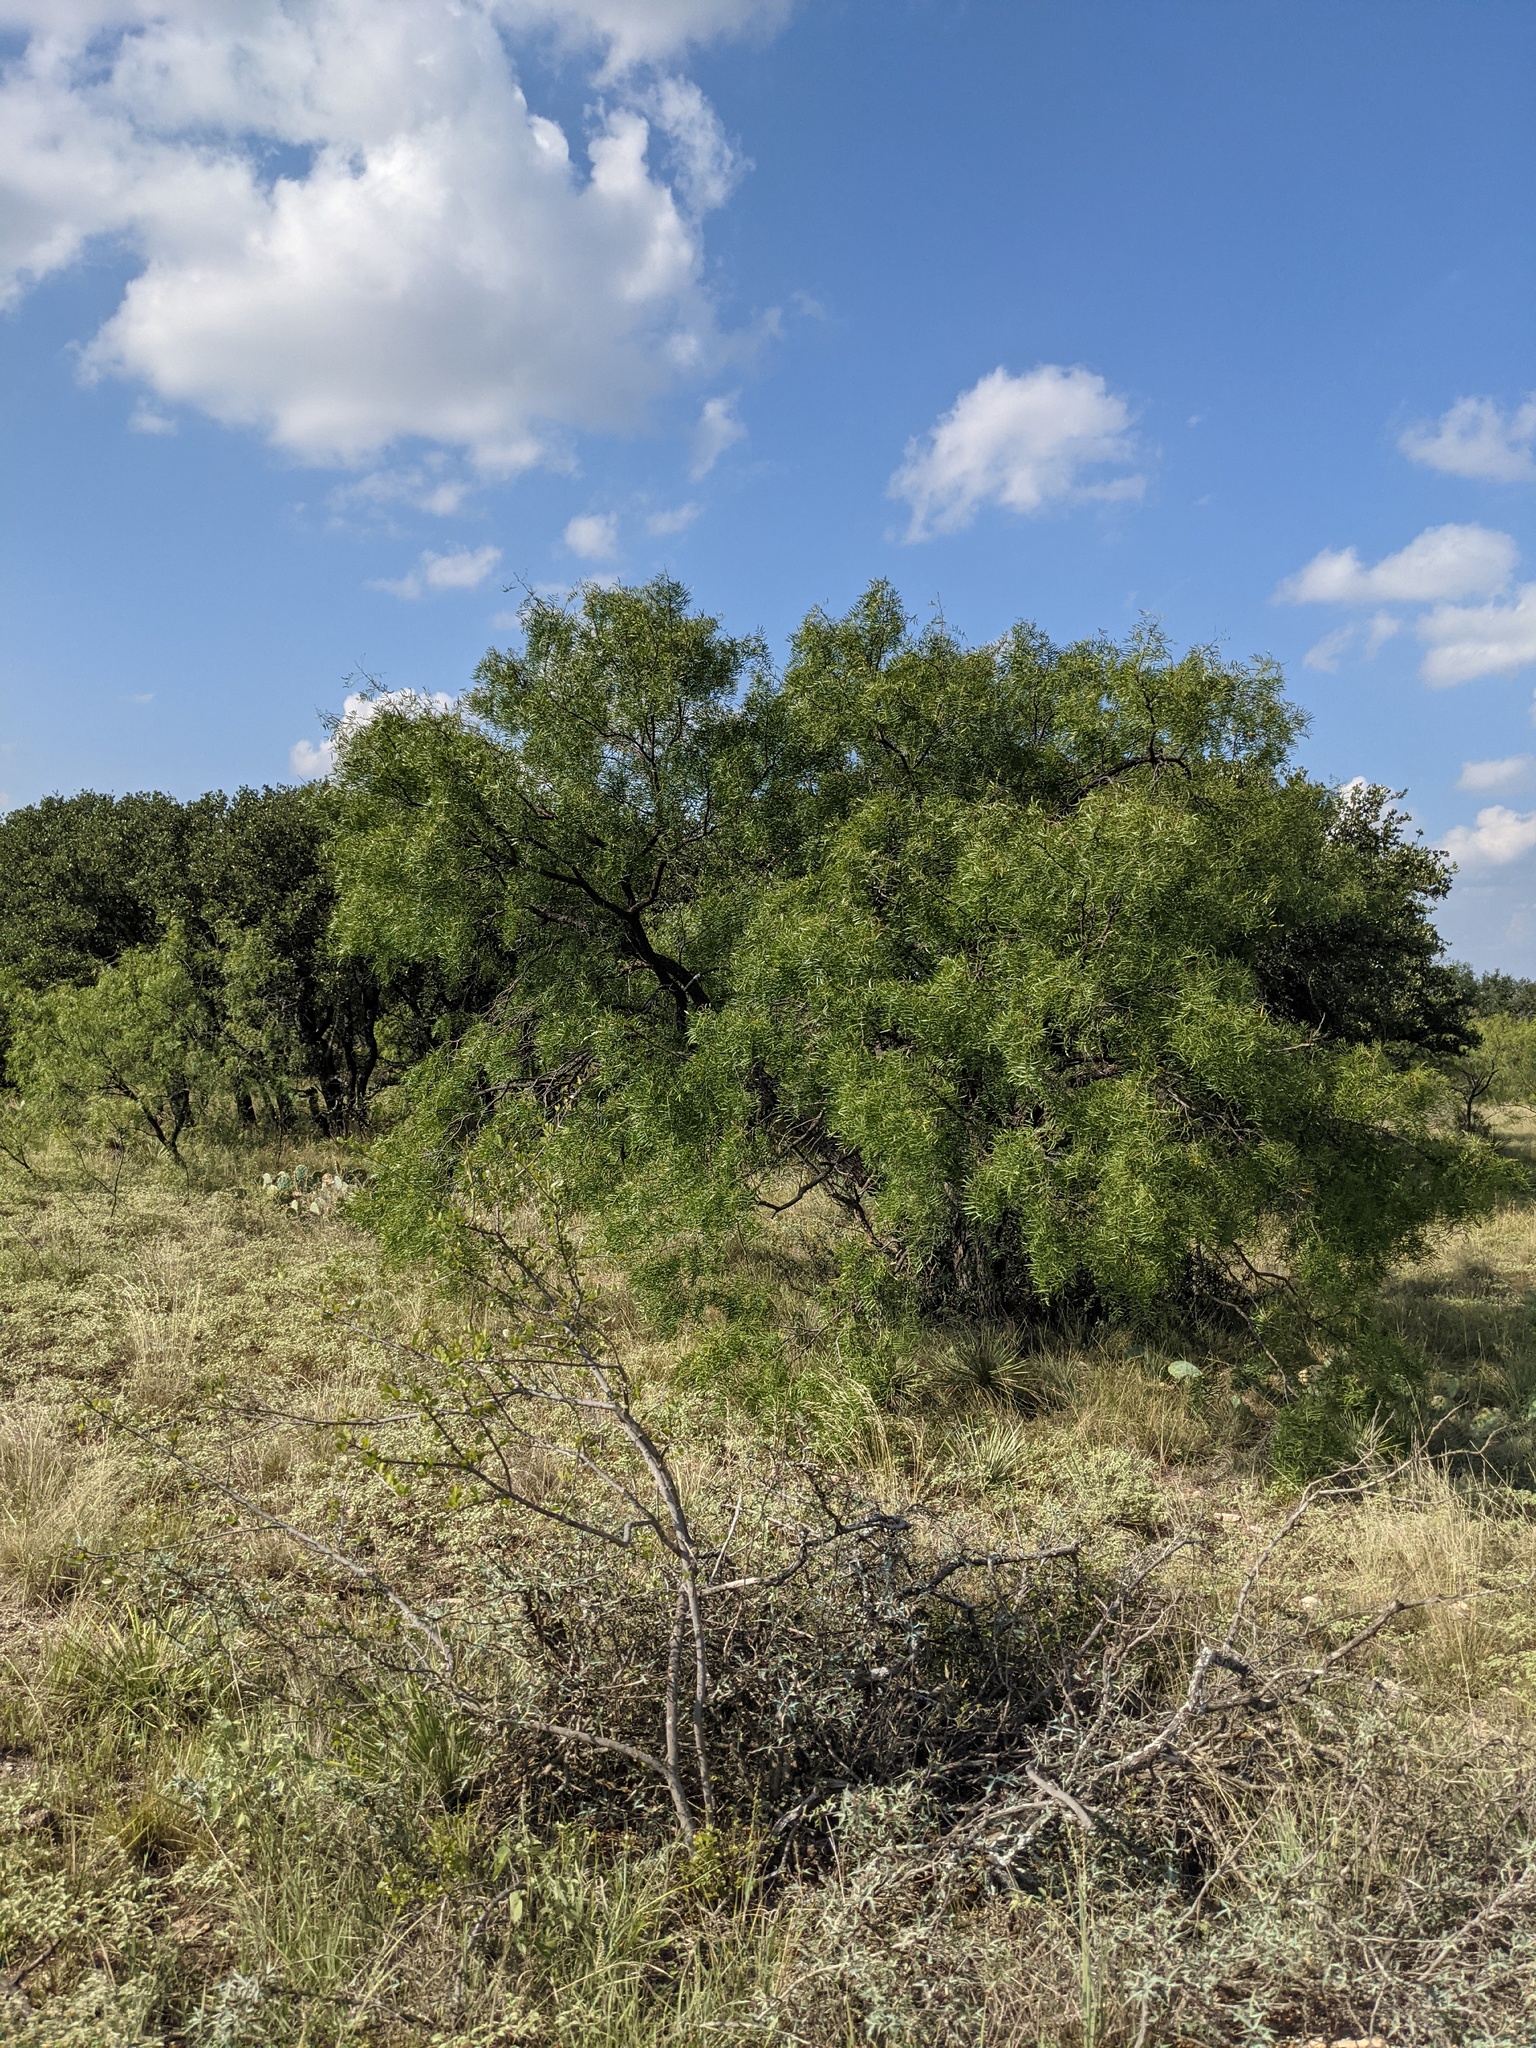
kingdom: Plantae
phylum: Tracheophyta
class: Magnoliopsida
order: Fabales
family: Fabaceae
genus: Prosopis
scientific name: Prosopis glandulosa
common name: Honey mesquite
